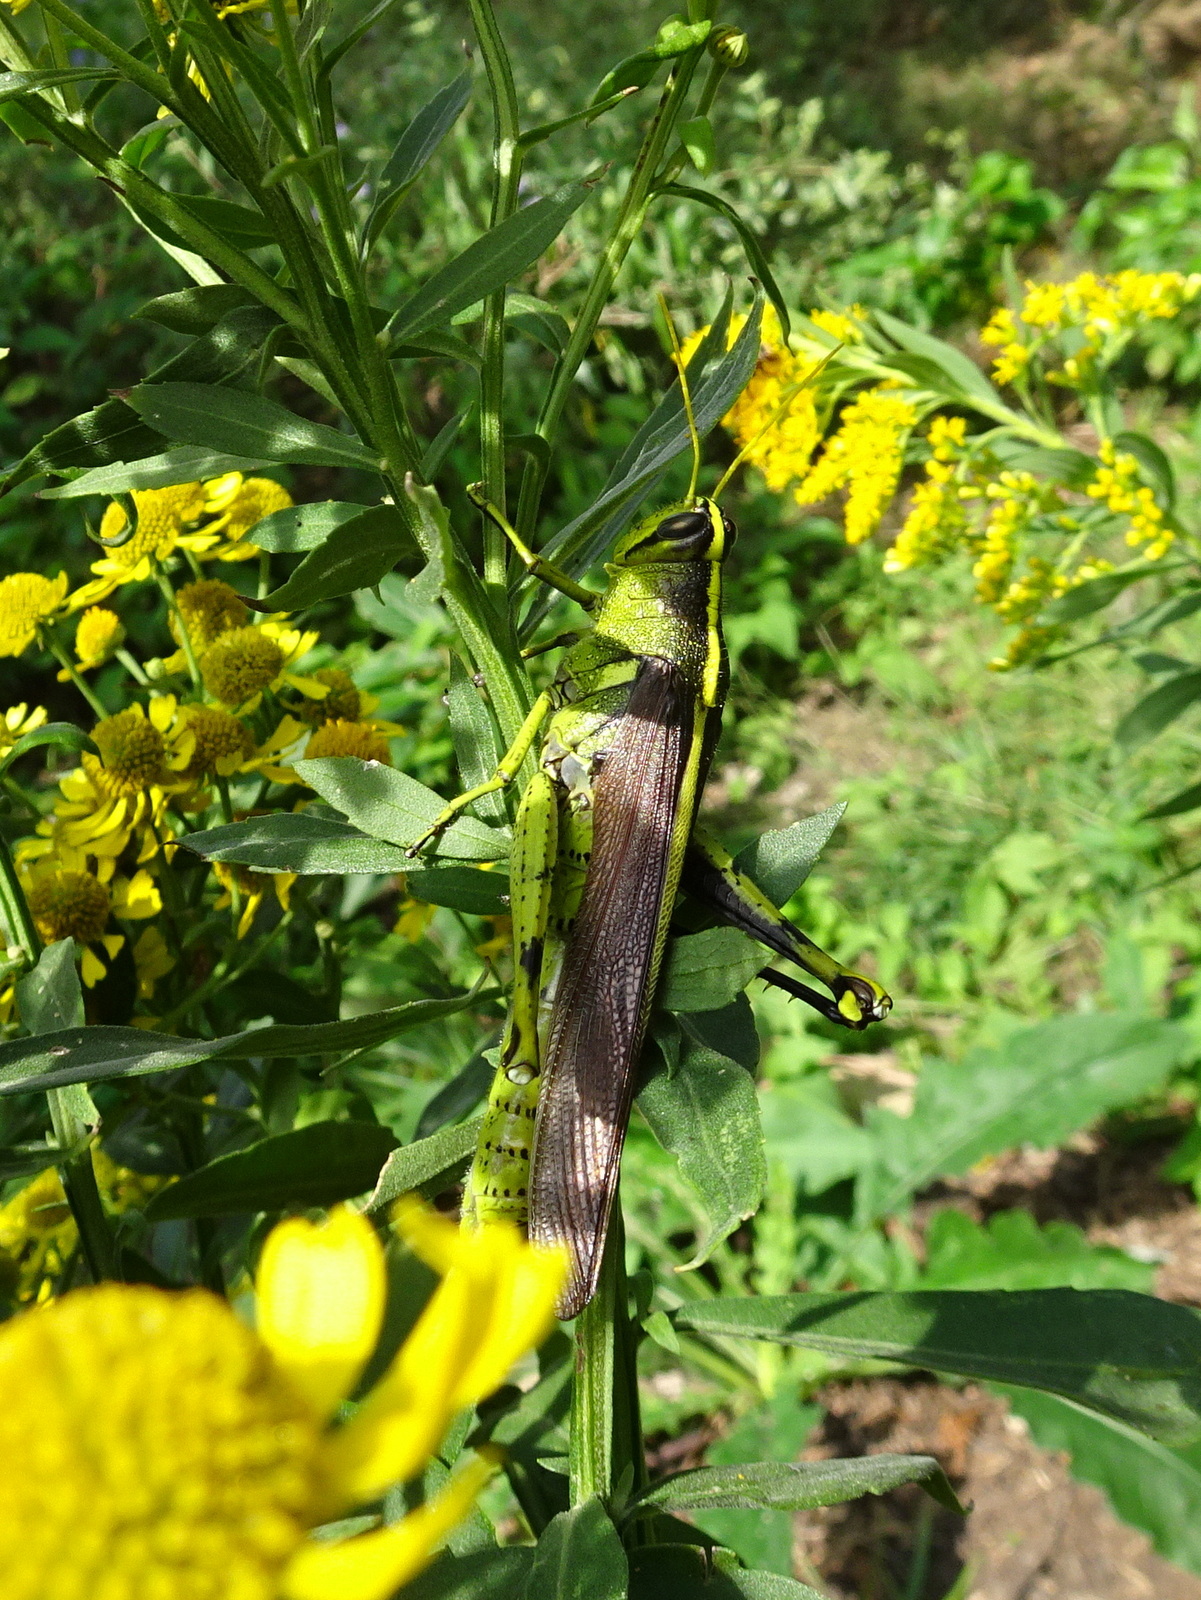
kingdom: Animalia
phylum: Arthropoda
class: Insecta
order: Orthoptera
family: Acrididae
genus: Schistocerca
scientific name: Schistocerca obscura
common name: Obscure bird grasshopper
